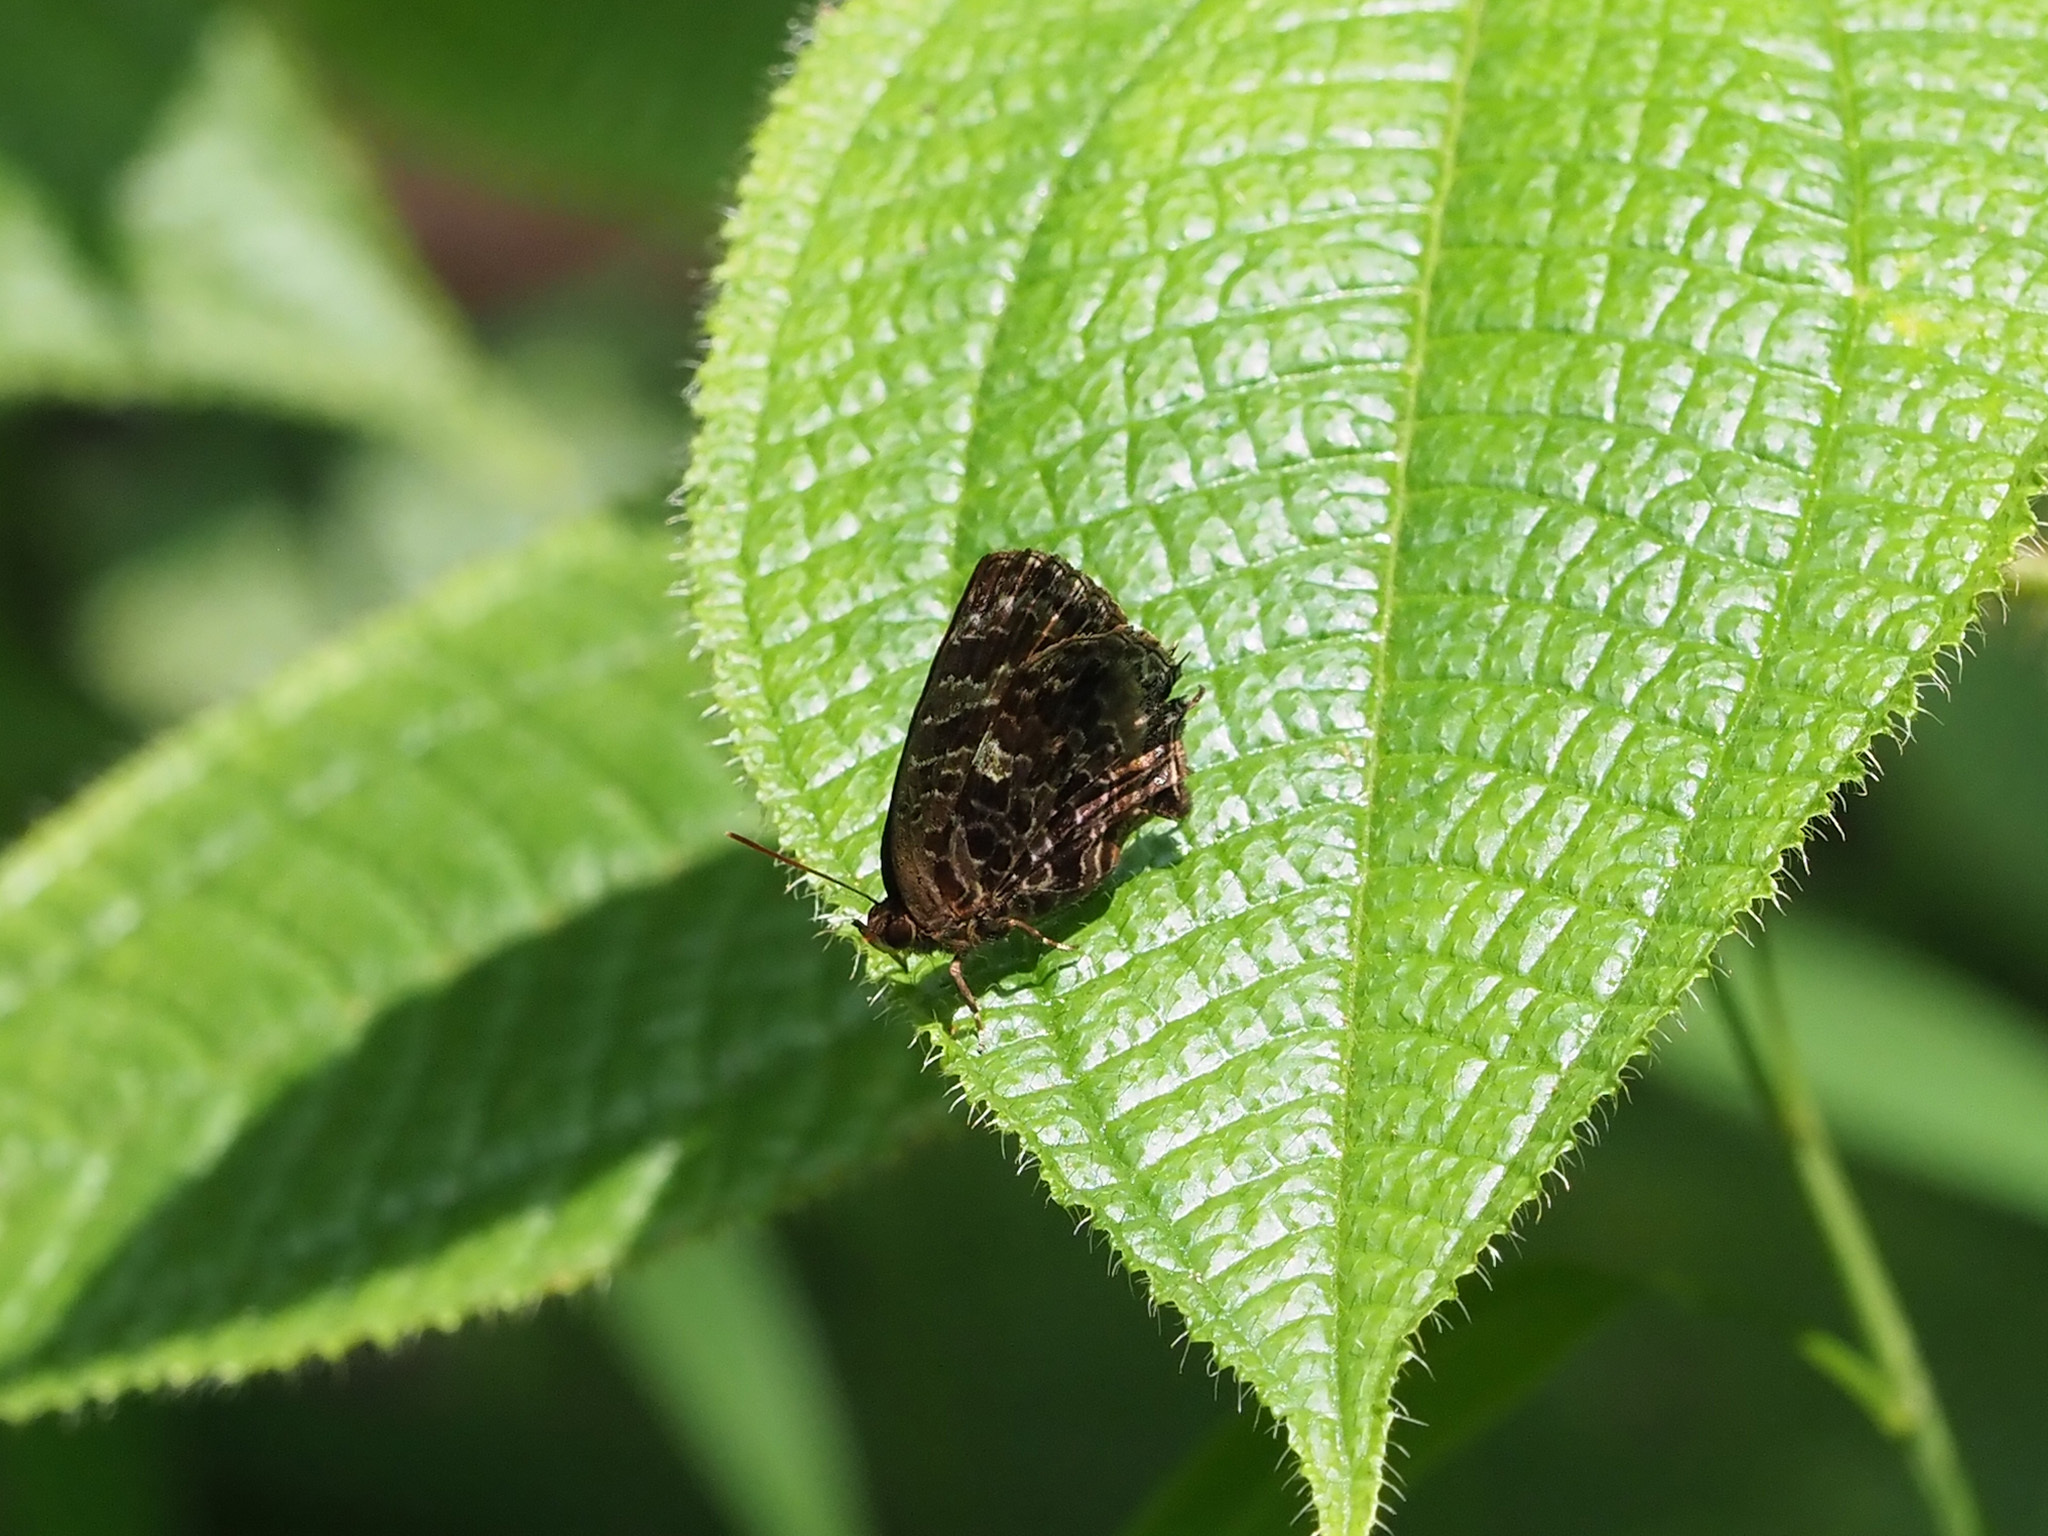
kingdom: Animalia
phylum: Arthropoda
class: Insecta
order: Lepidoptera
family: Lycaenidae
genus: Arhopala
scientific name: Arhopala abseus
